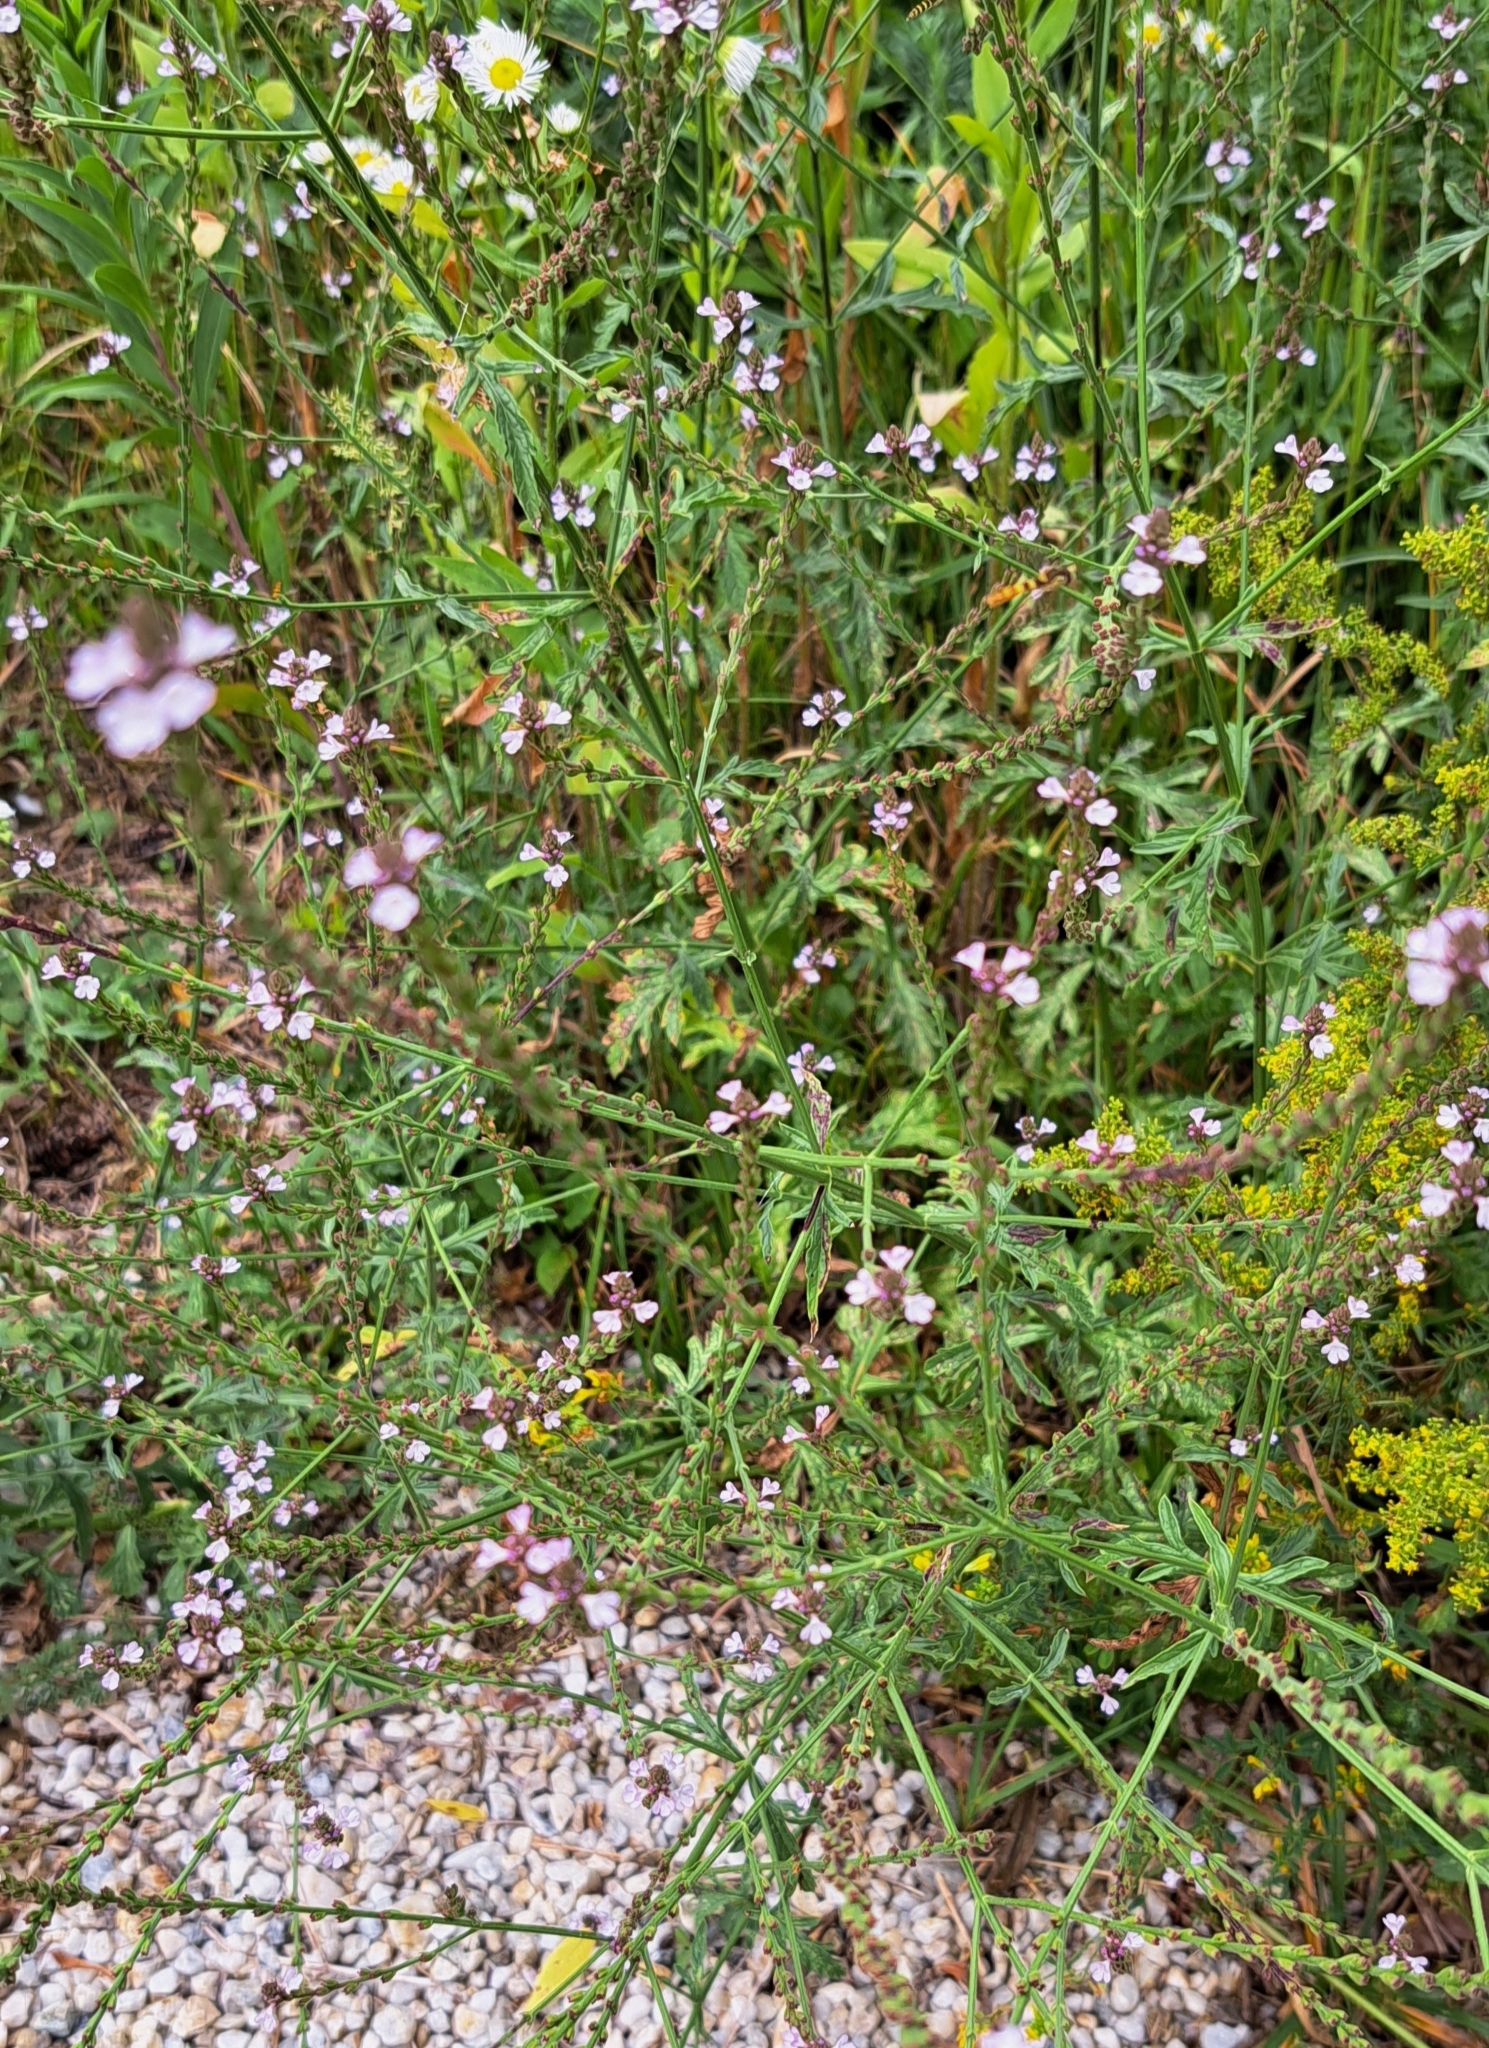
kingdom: Plantae
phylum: Tracheophyta
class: Magnoliopsida
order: Lamiales
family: Verbenaceae
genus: Verbena
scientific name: Verbena officinalis
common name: Vervain
